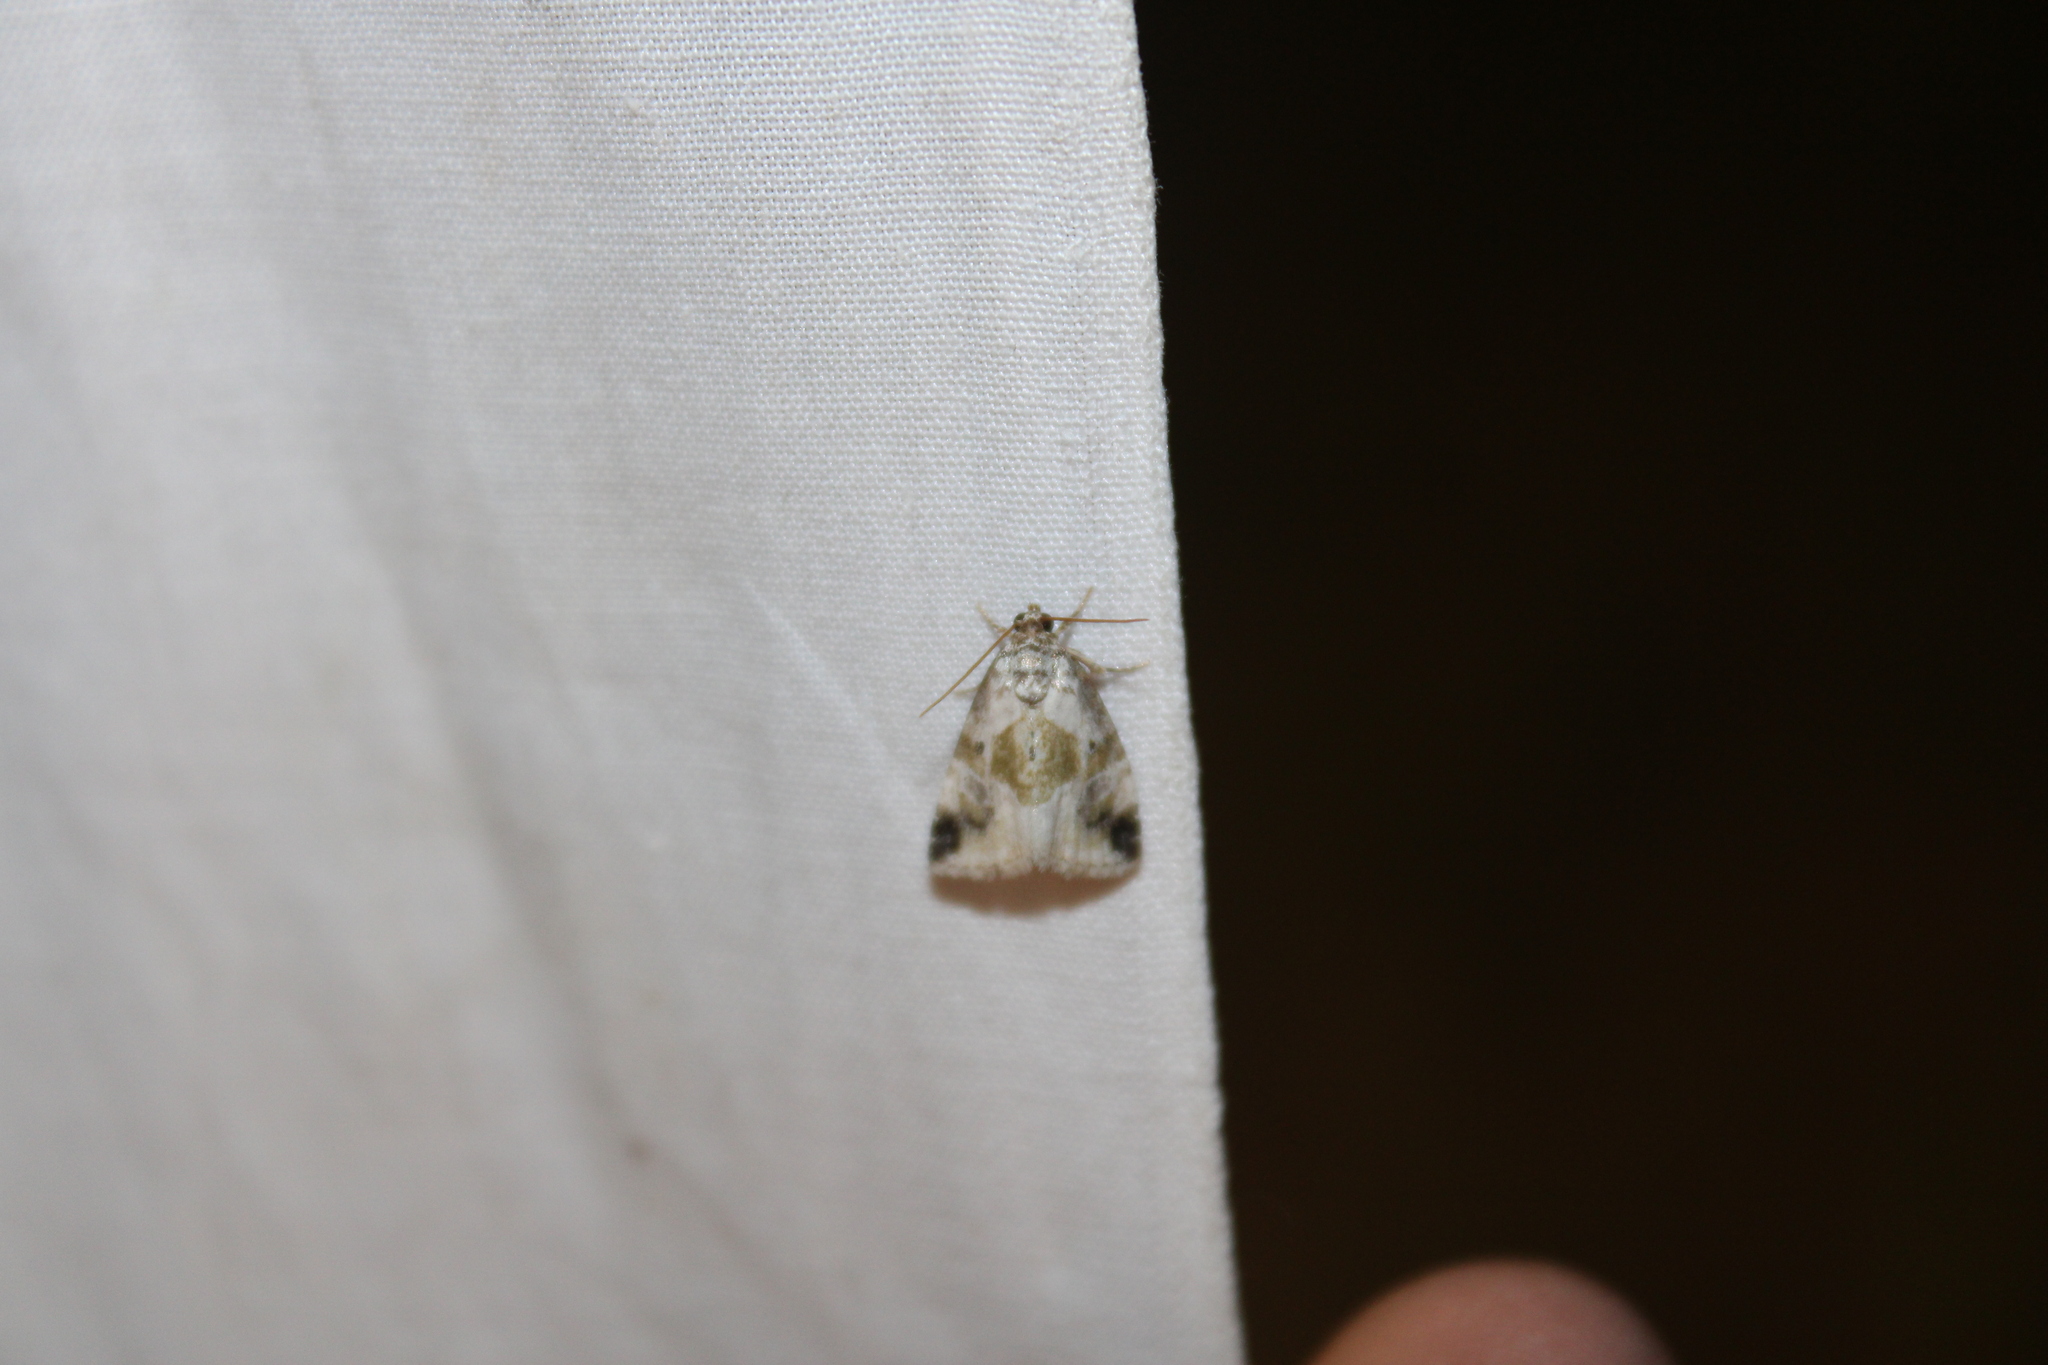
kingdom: Animalia
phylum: Arthropoda
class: Insecta
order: Lepidoptera
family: Noctuidae
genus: Maliattha
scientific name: Maliattha synochitis
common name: Black-dotted glyph
